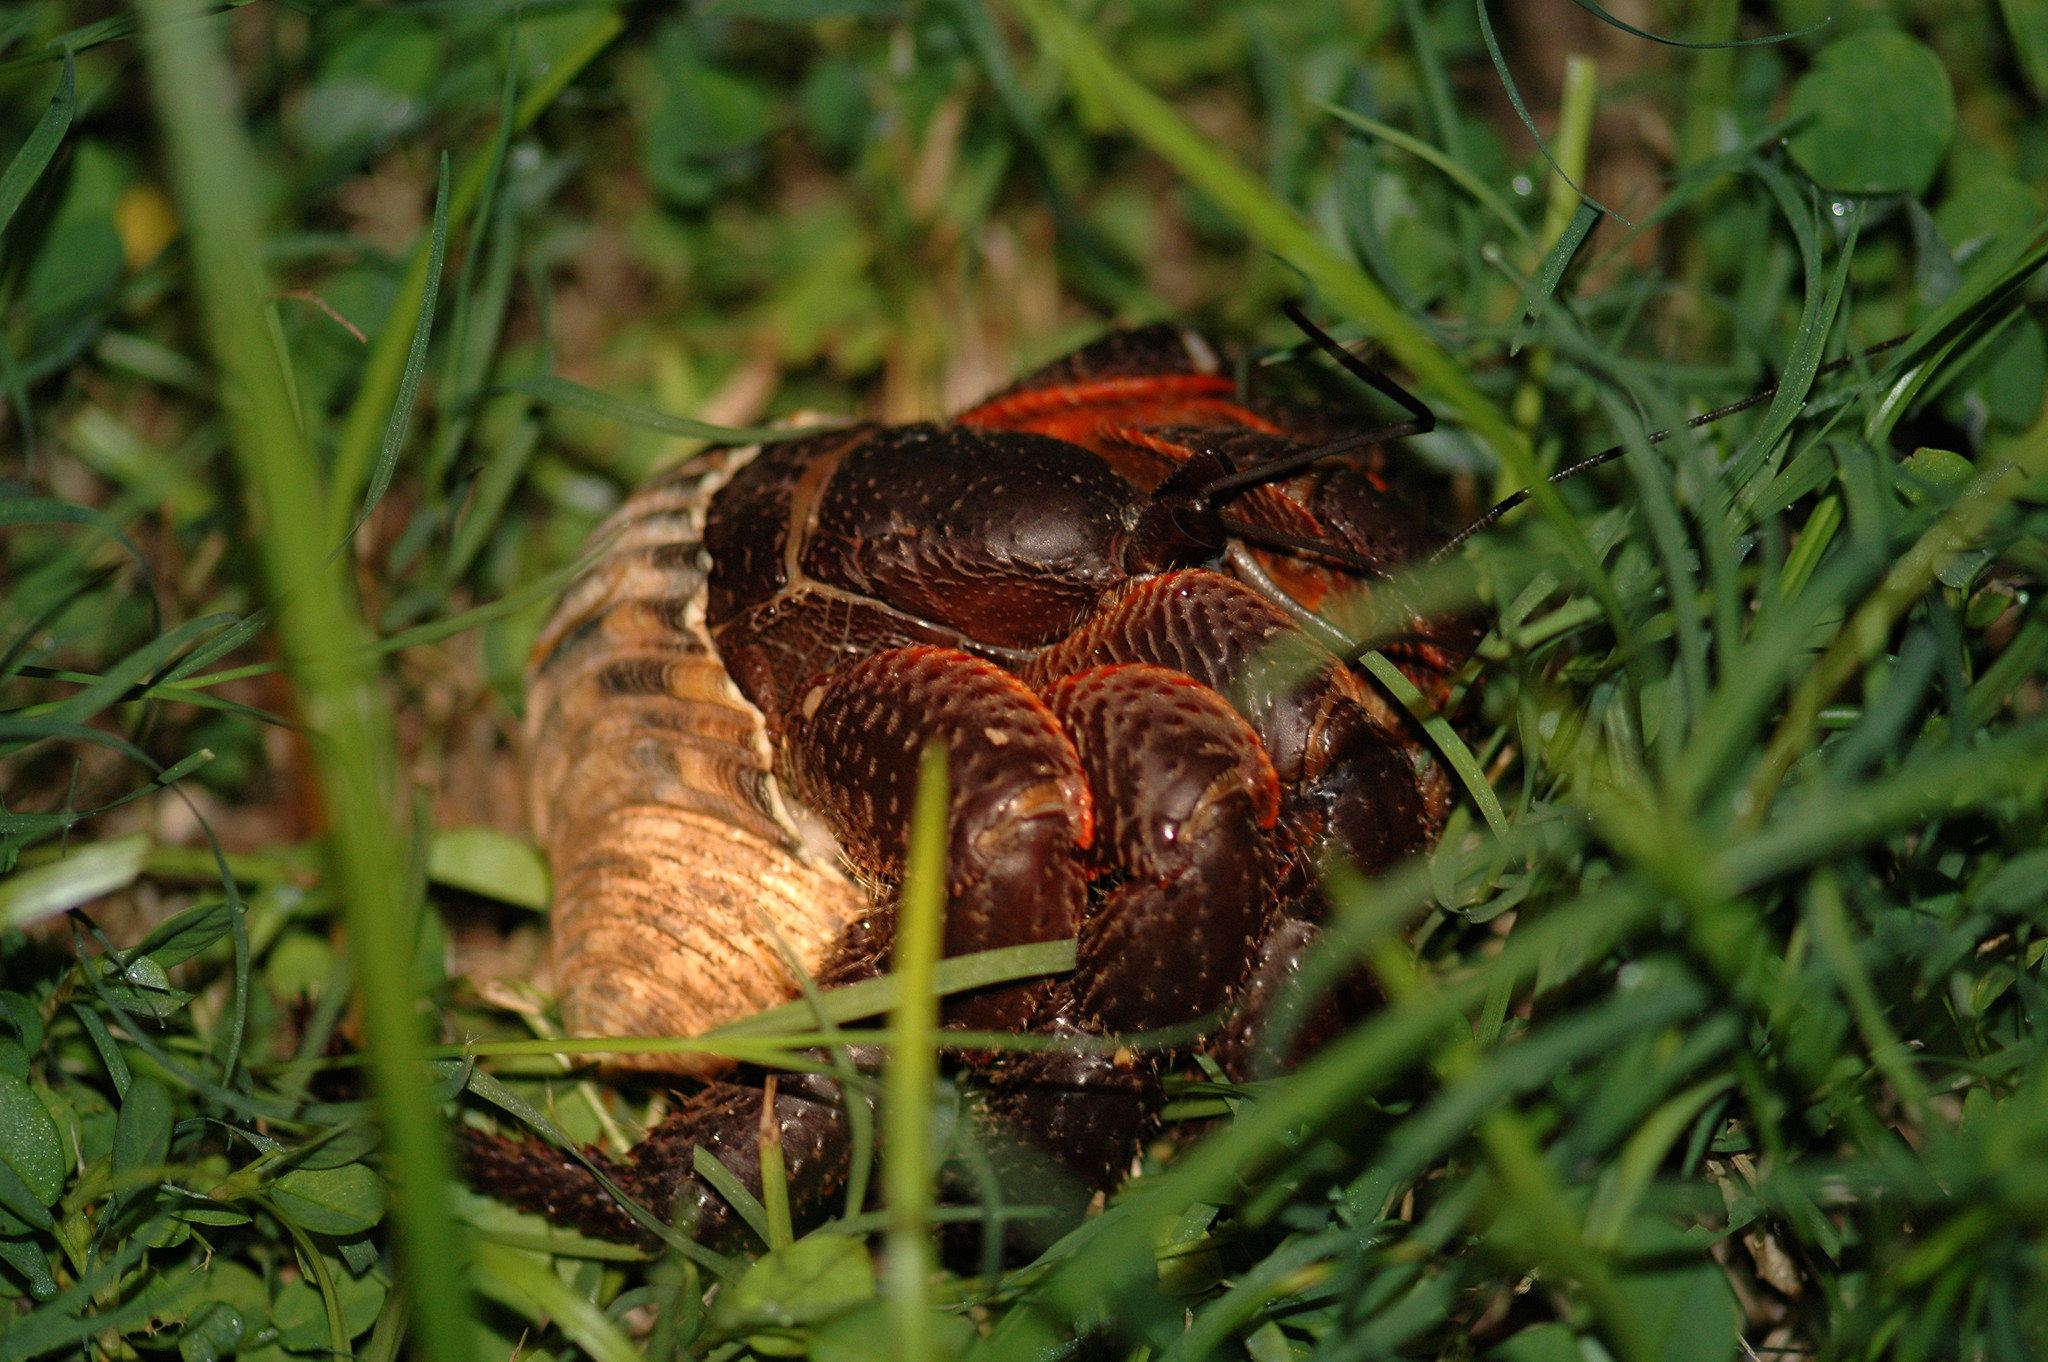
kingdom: Animalia
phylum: Arthropoda
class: Malacostraca
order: Decapoda
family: Coenobitidae
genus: Coenobita
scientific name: Coenobita spinosus
